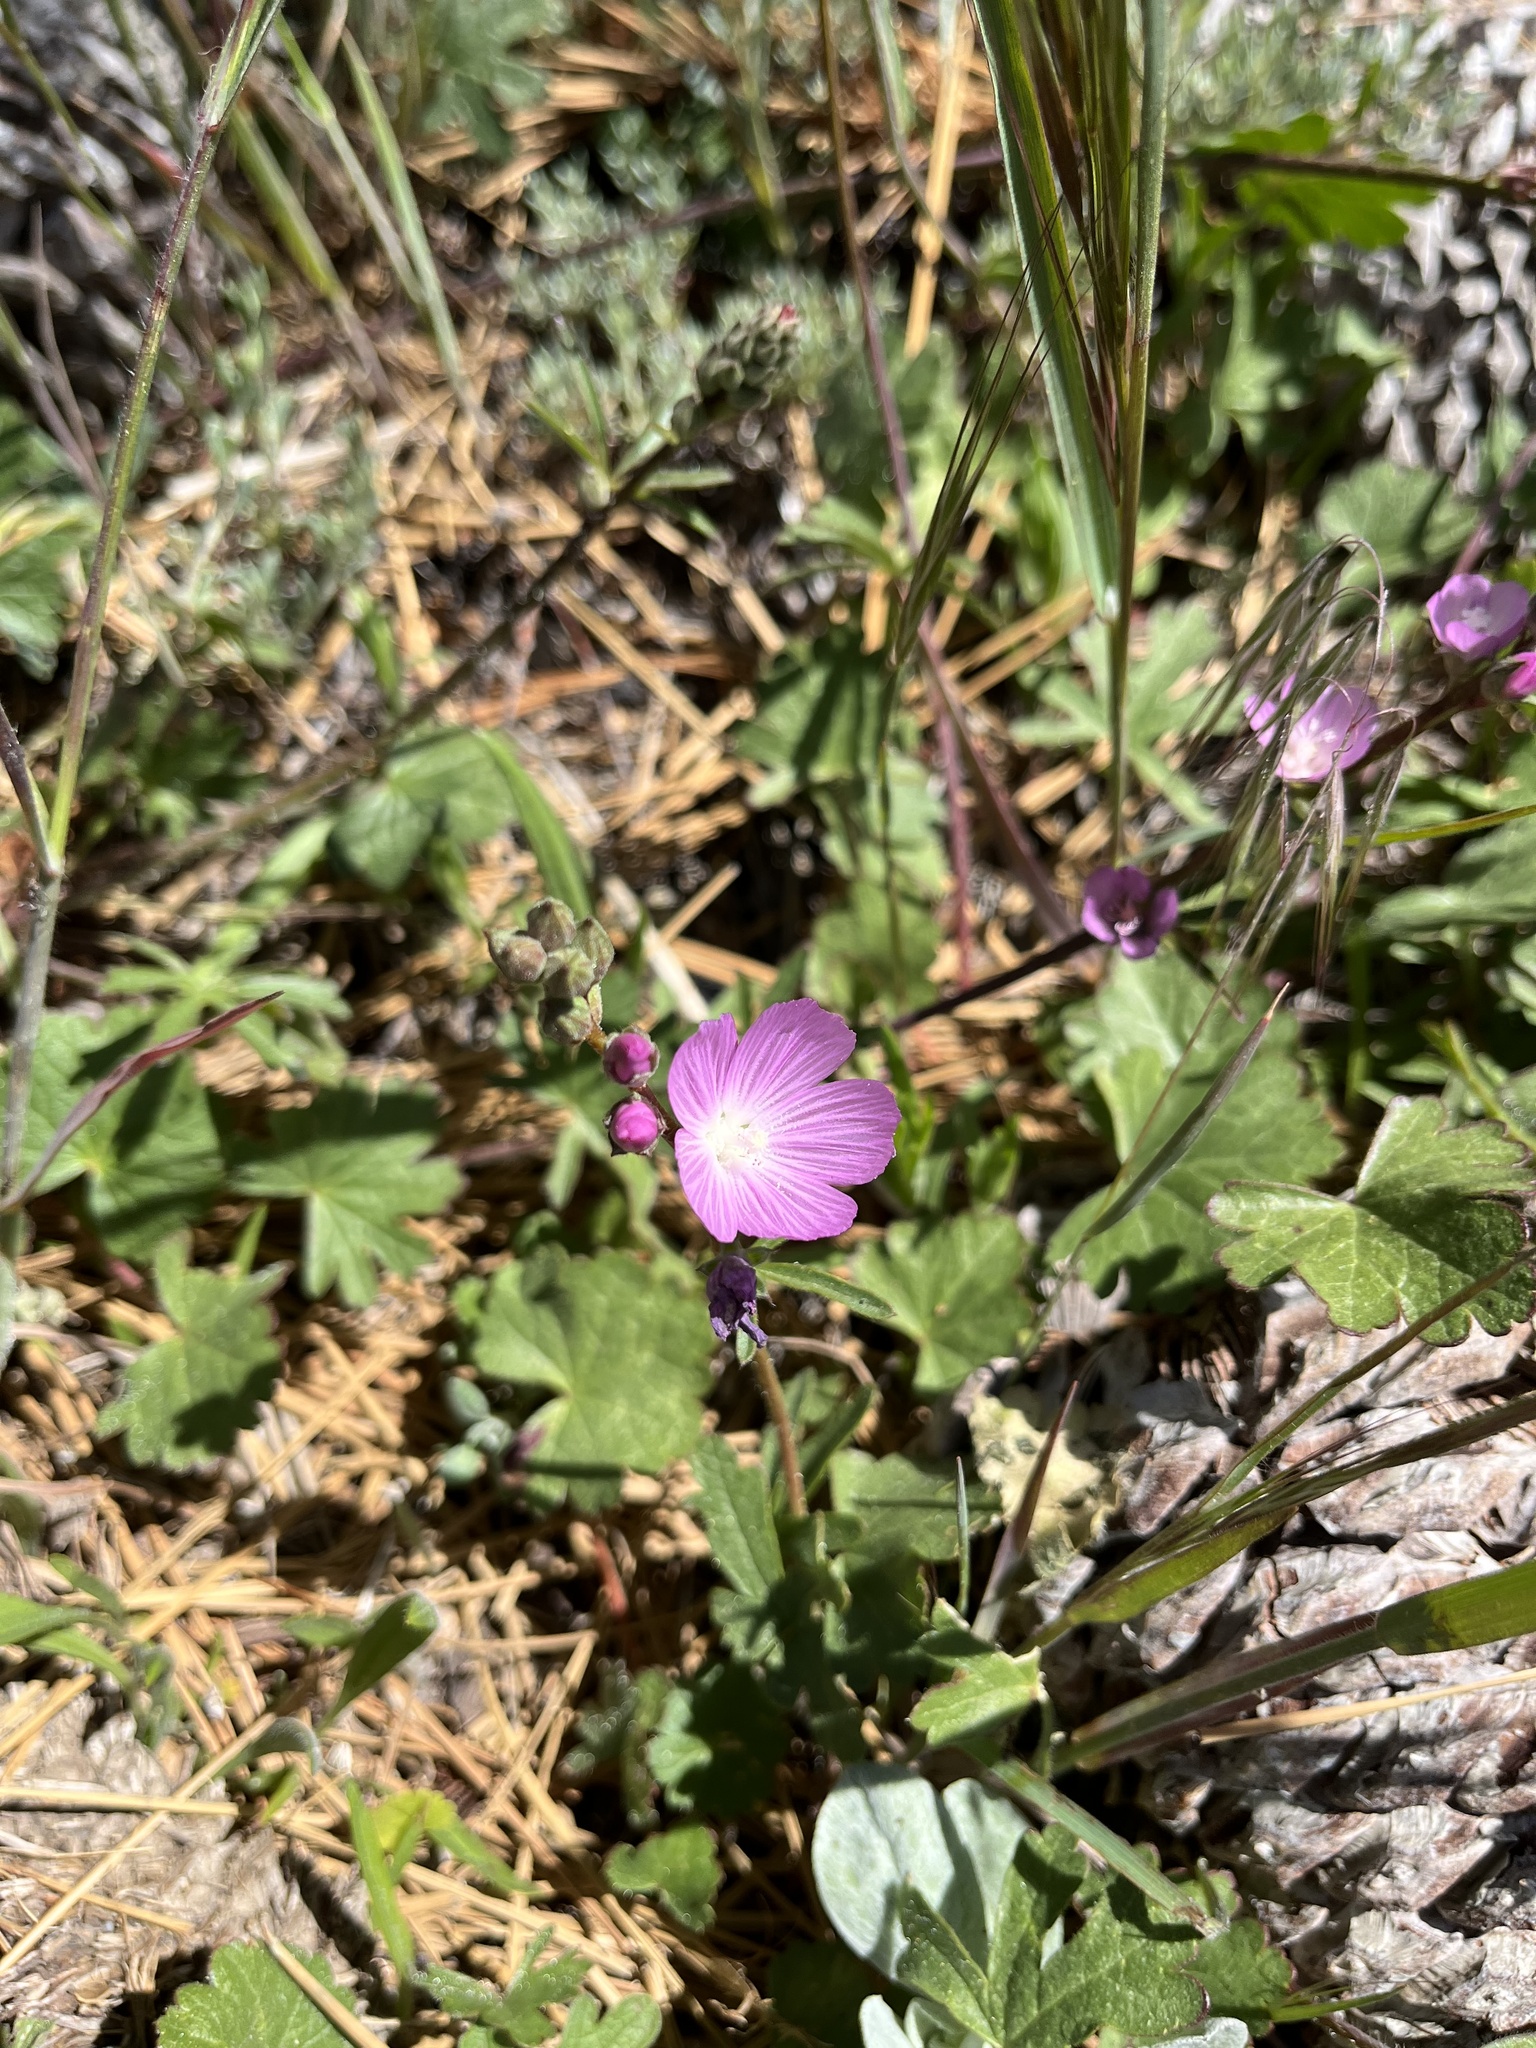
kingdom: Plantae
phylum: Tracheophyta
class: Magnoliopsida
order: Malvales
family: Malvaceae
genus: Sidalcea
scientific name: Sidalcea sparsifolia
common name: Southern checkerbloom
